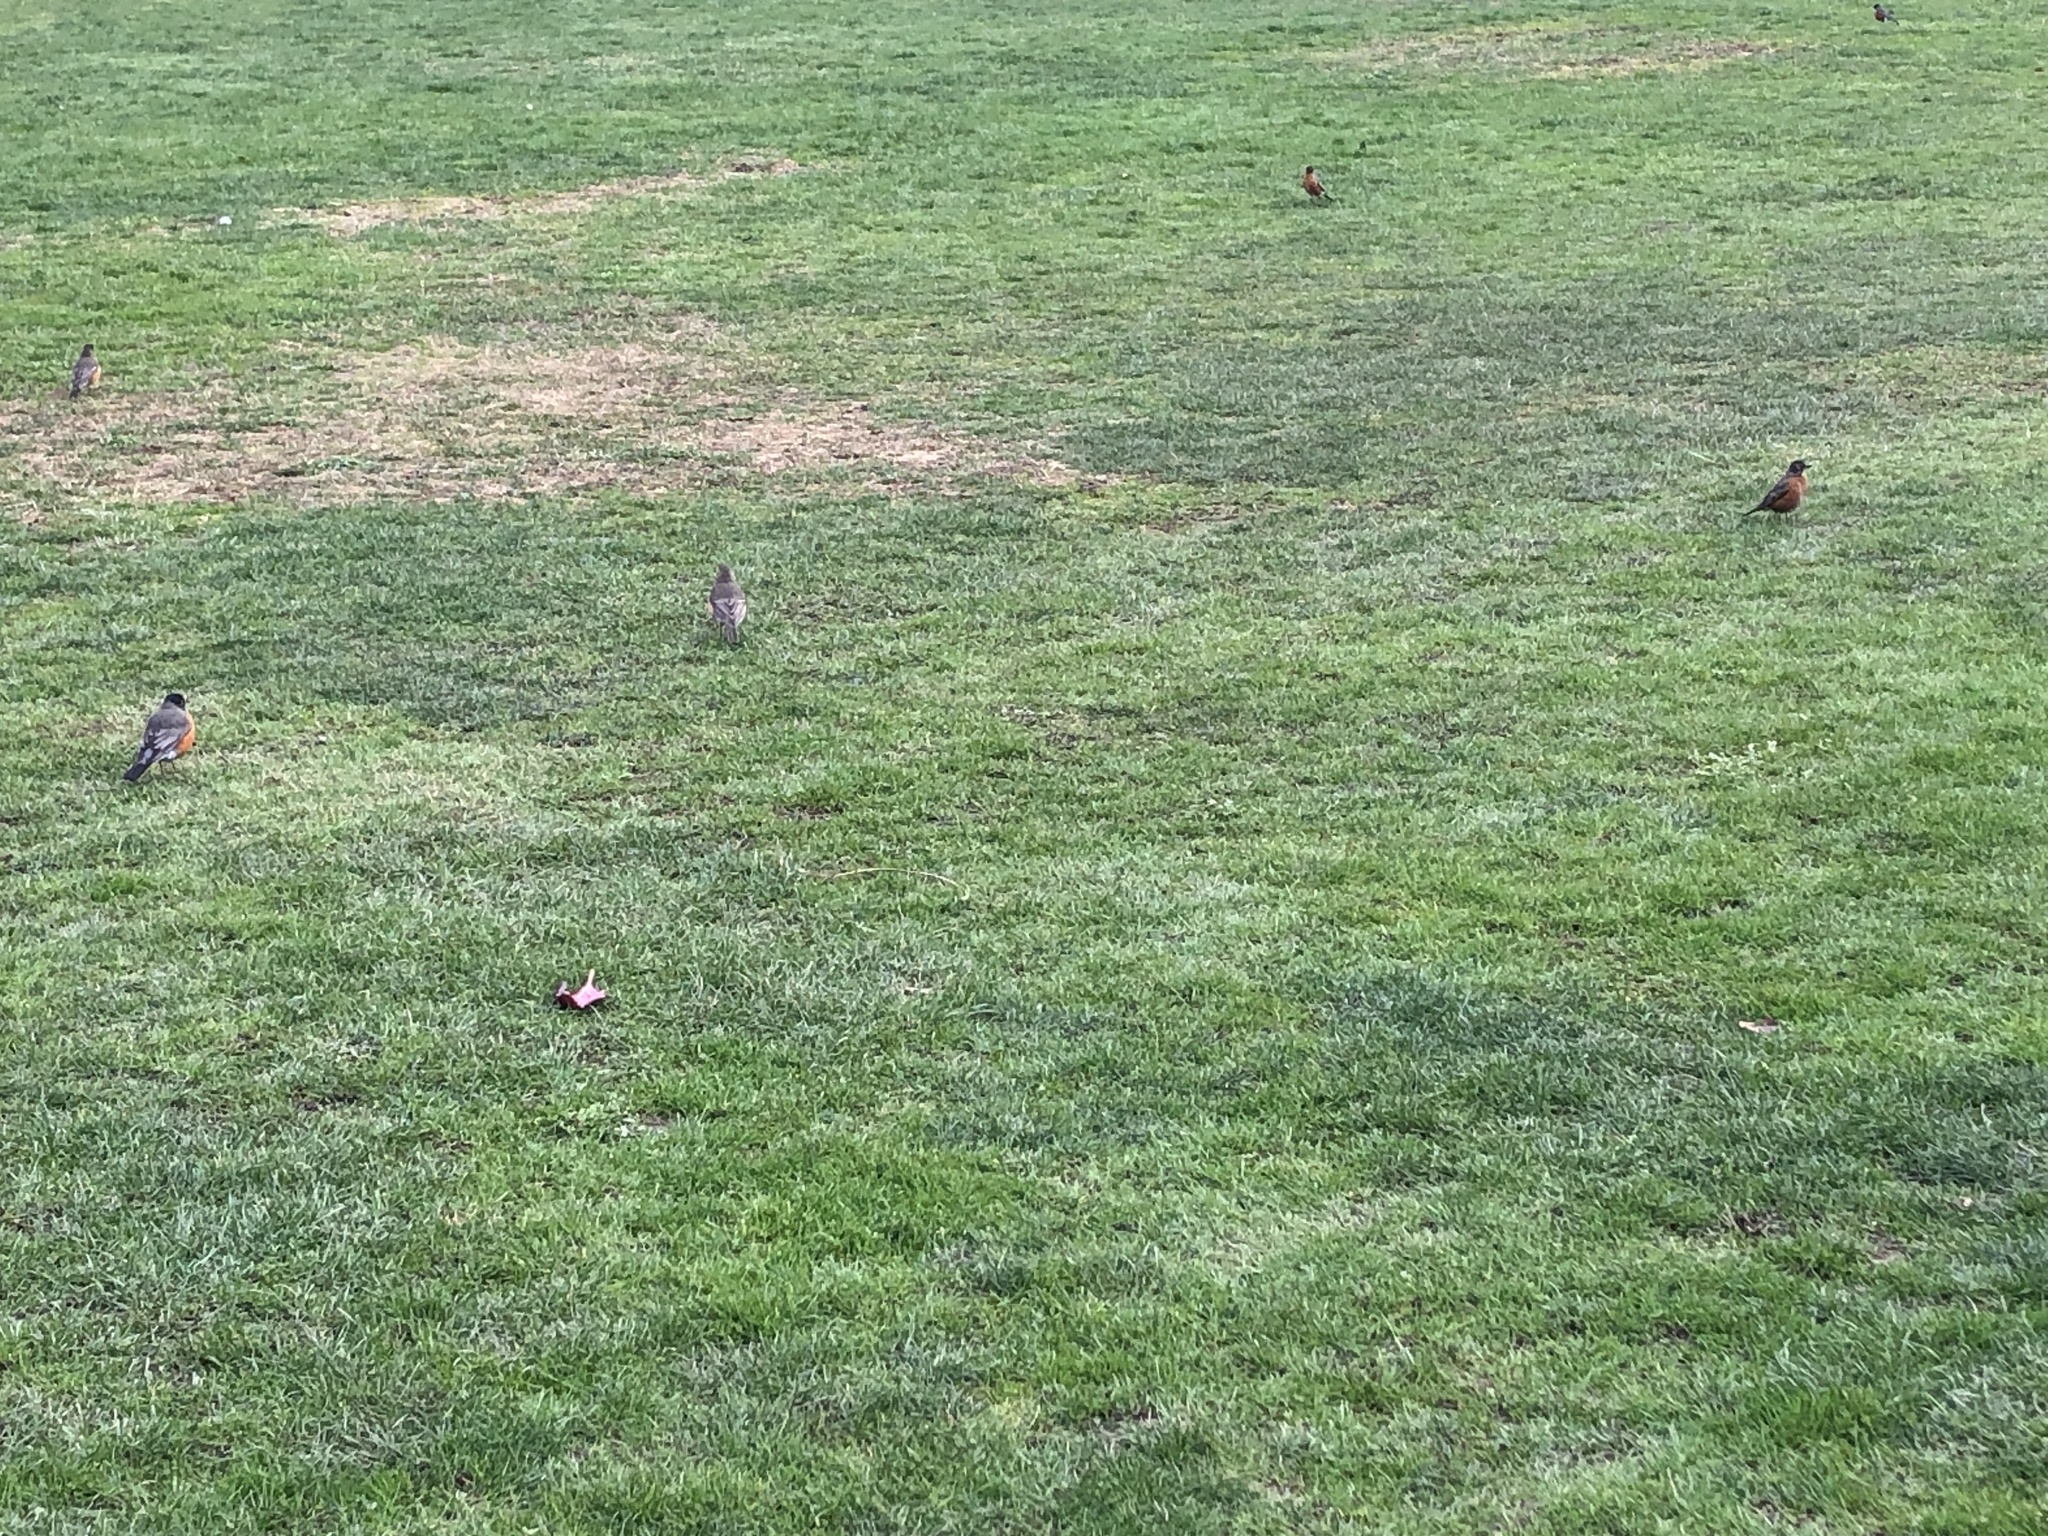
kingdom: Animalia
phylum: Chordata
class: Aves
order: Passeriformes
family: Turdidae
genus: Turdus
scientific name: Turdus migratorius
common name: American robin
